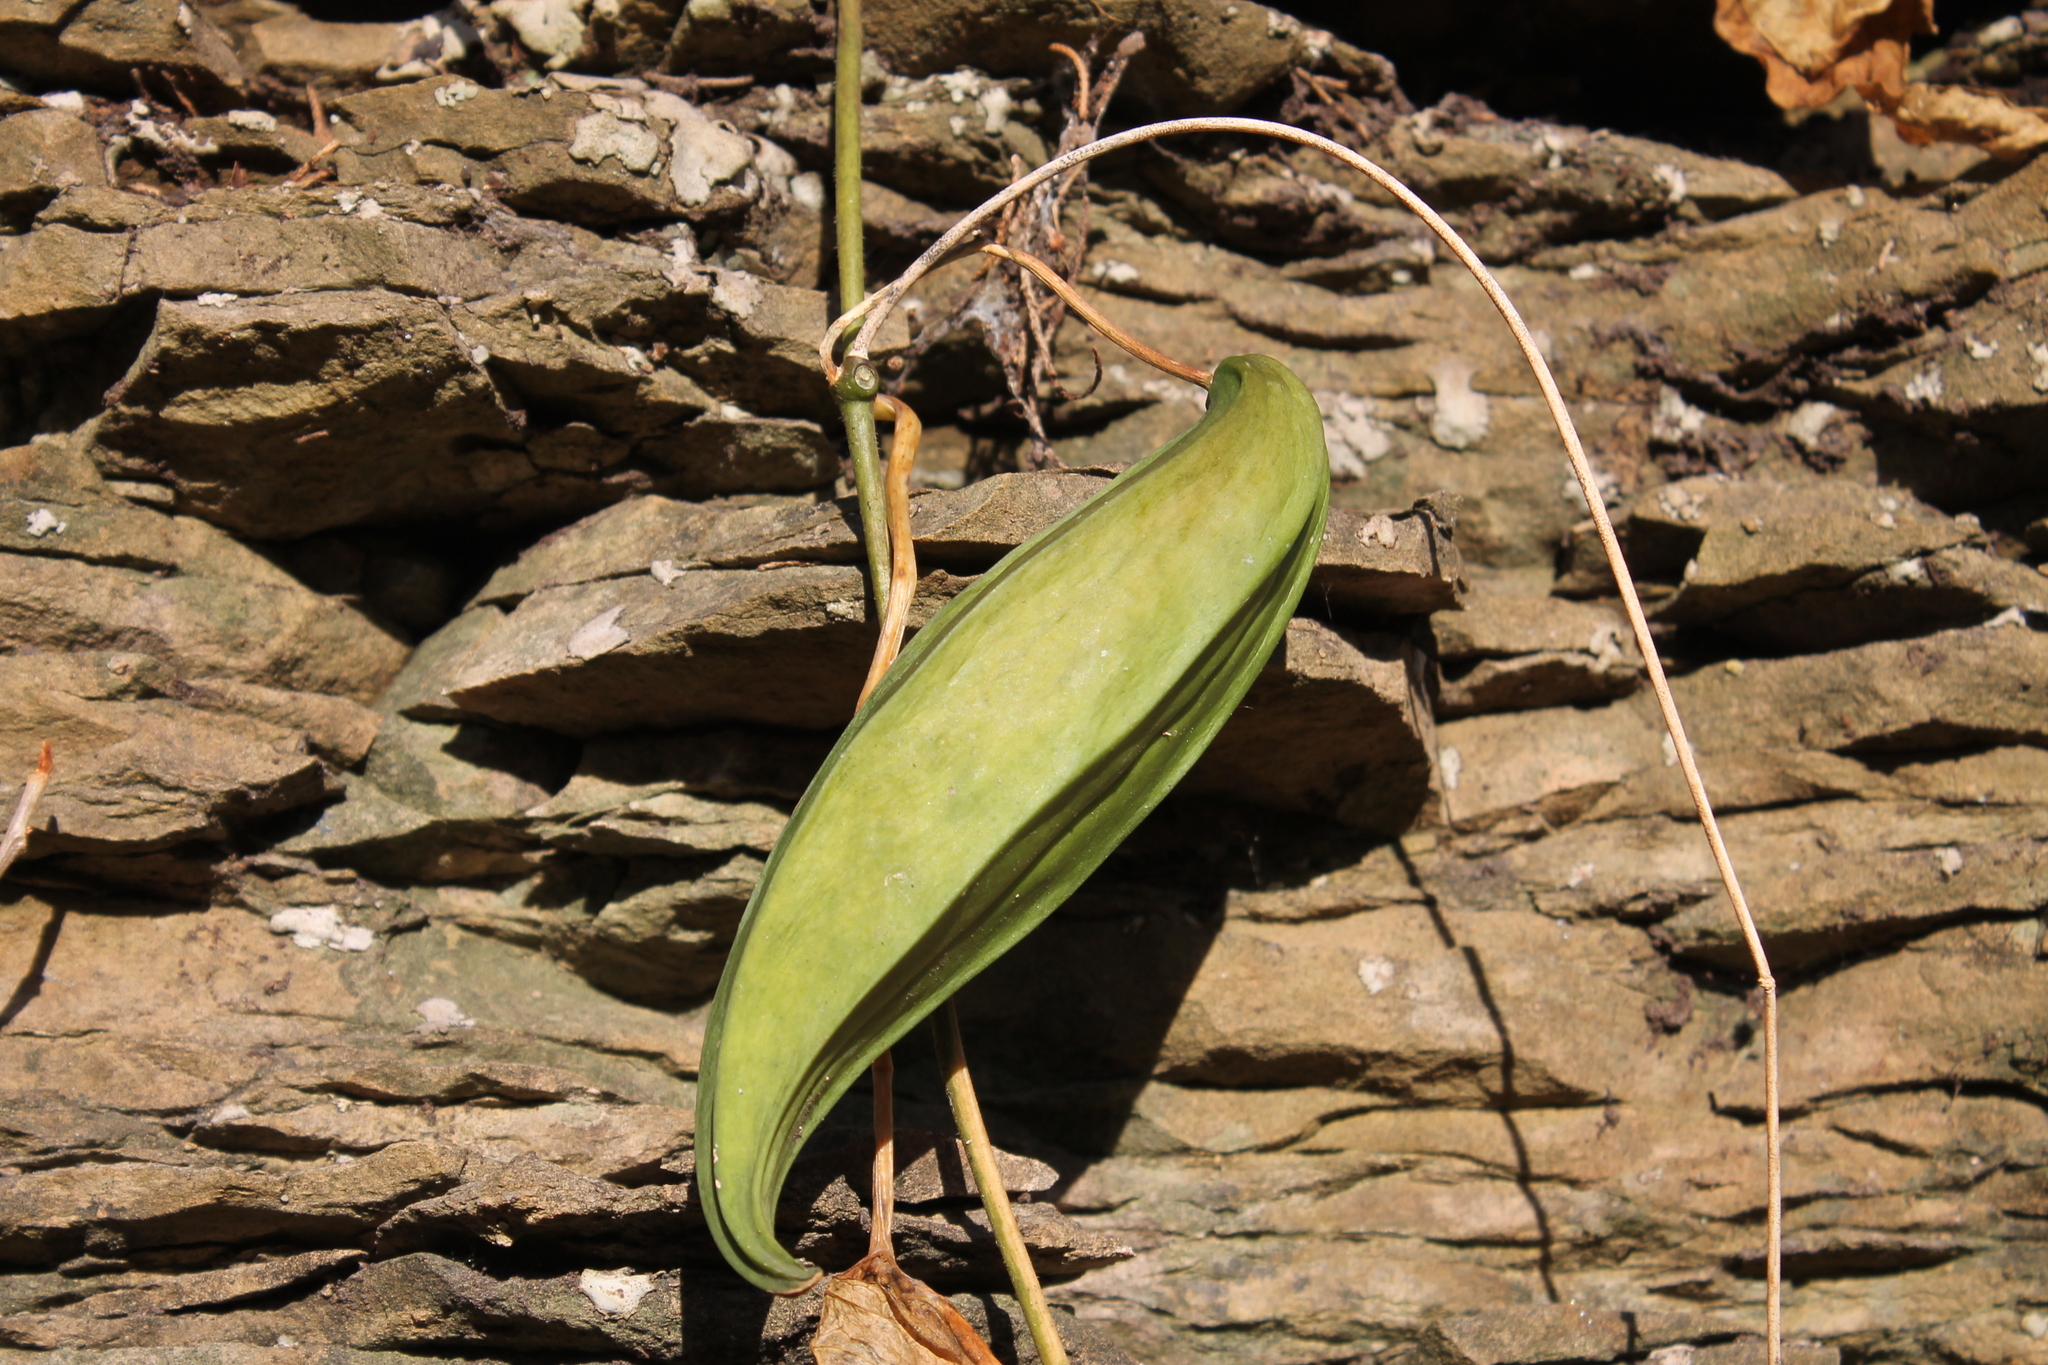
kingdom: Plantae
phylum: Tracheophyta
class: Magnoliopsida
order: Gentianales
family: Apocynaceae
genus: Gonolobus
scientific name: Gonolobus suberosus
